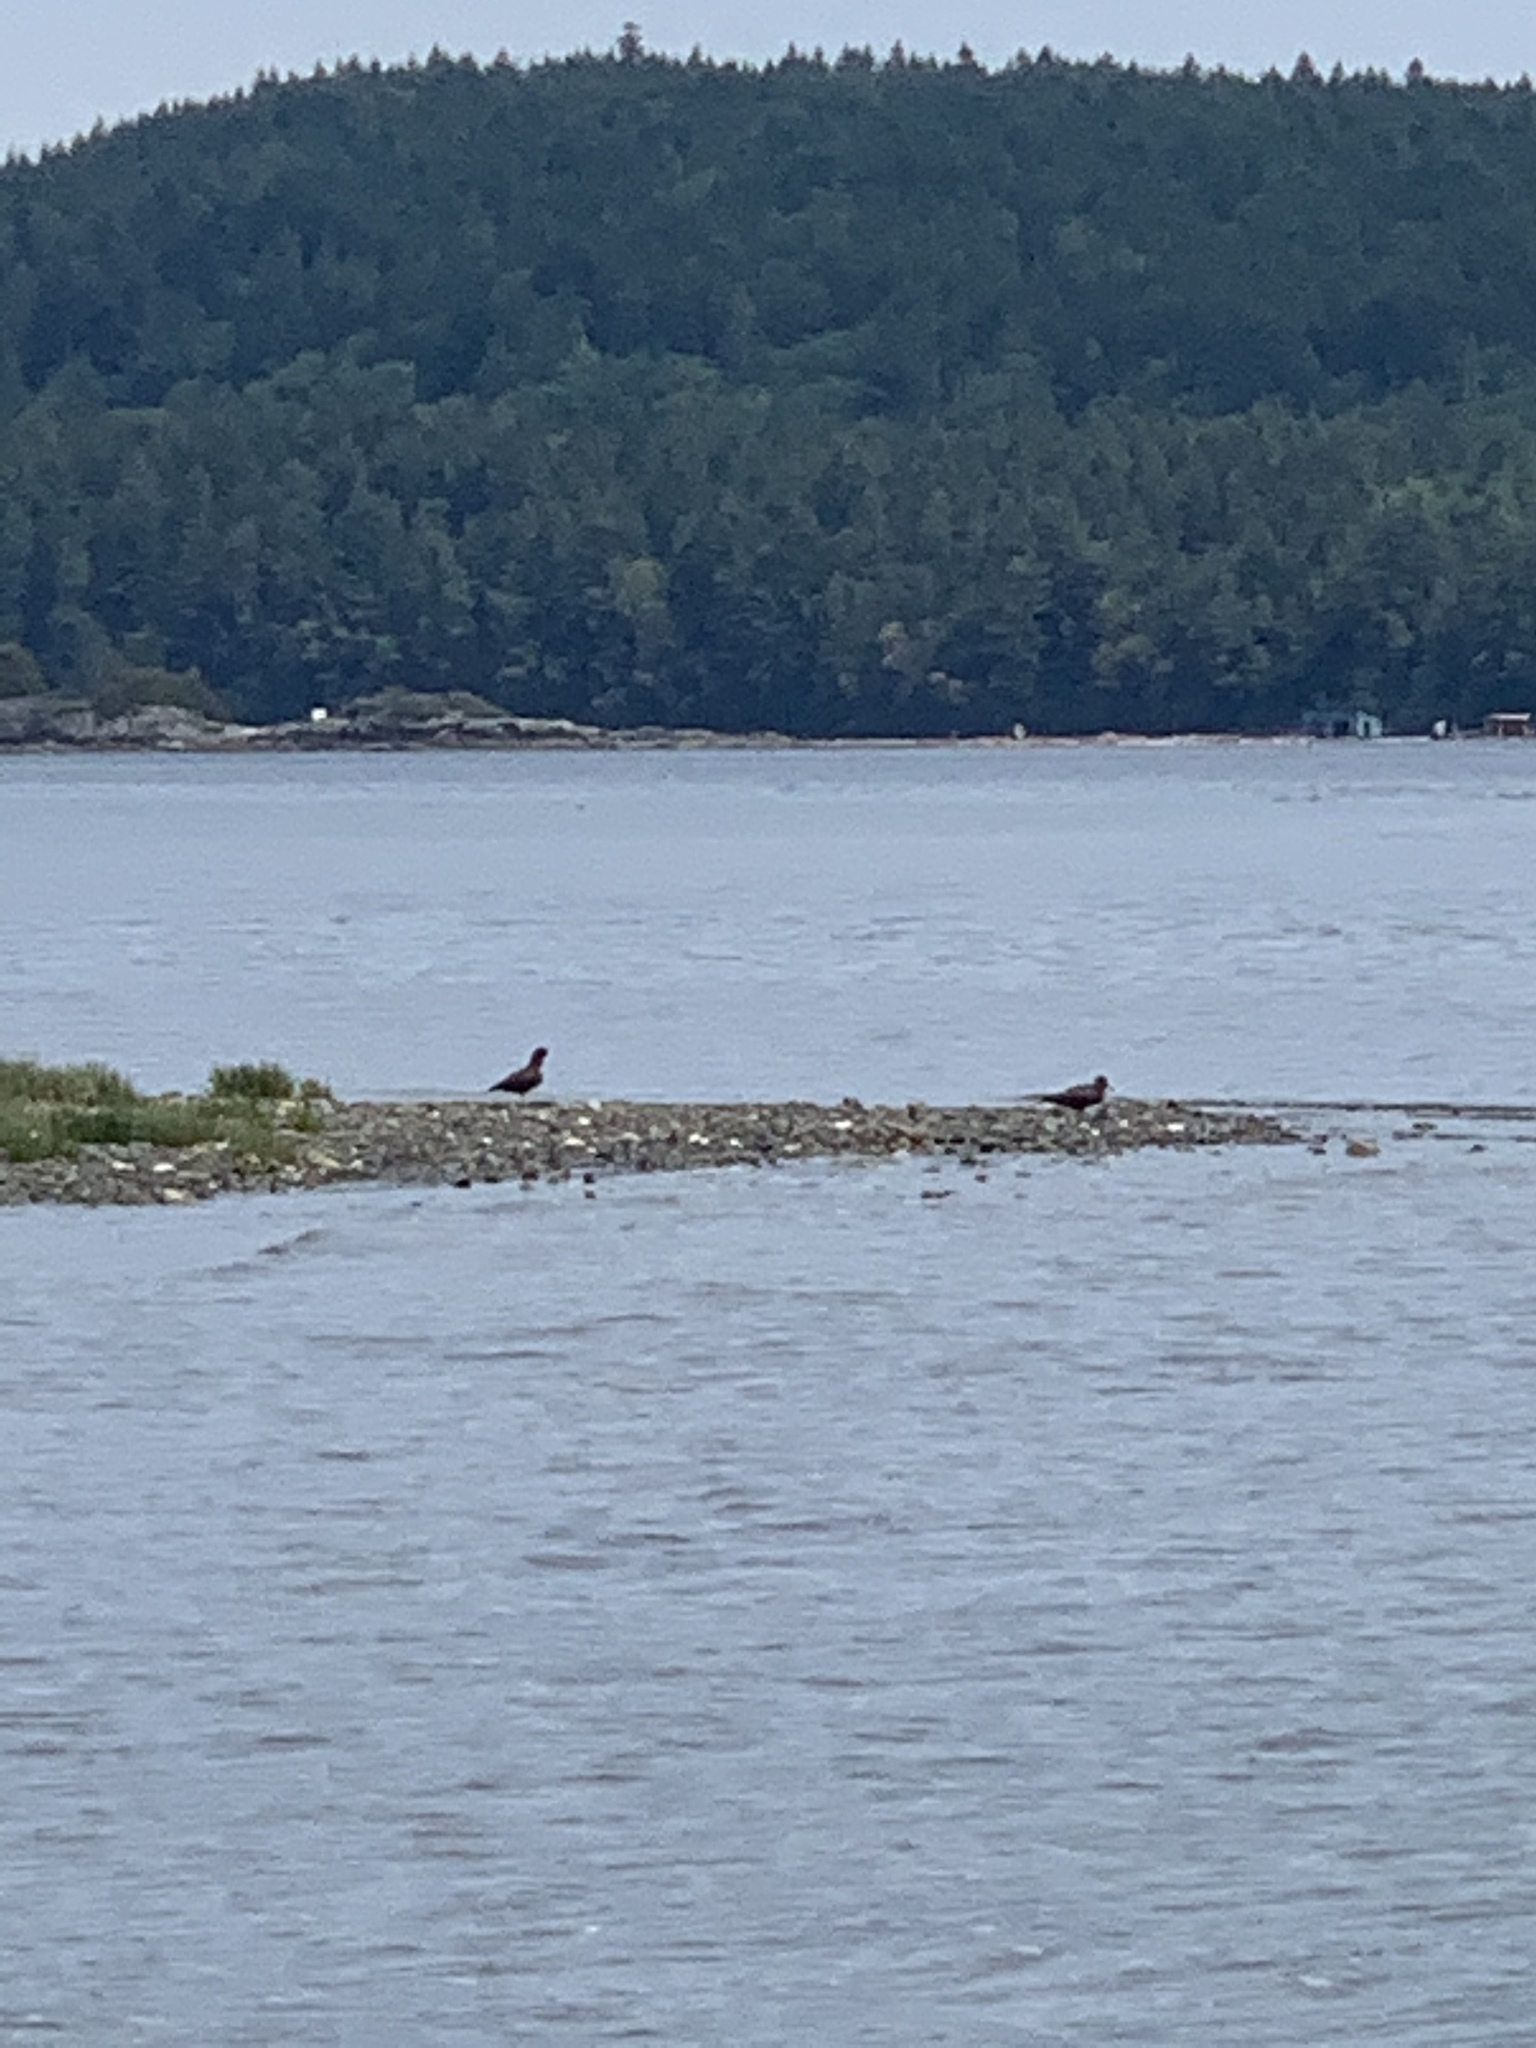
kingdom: Animalia
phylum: Chordata
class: Aves
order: Charadriiformes
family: Haematopodidae
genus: Haematopus
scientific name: Haematopus bachmani
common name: Black oystercatcher
